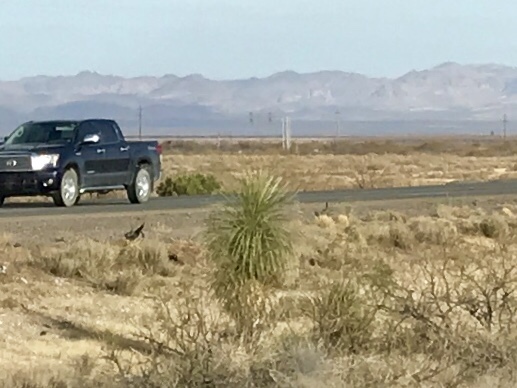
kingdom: Plantae
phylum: Tracheophyta
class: Liliopsida
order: Asparagales
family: Asparagaceae
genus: Yucca
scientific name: Yucca elata
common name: Palmella
